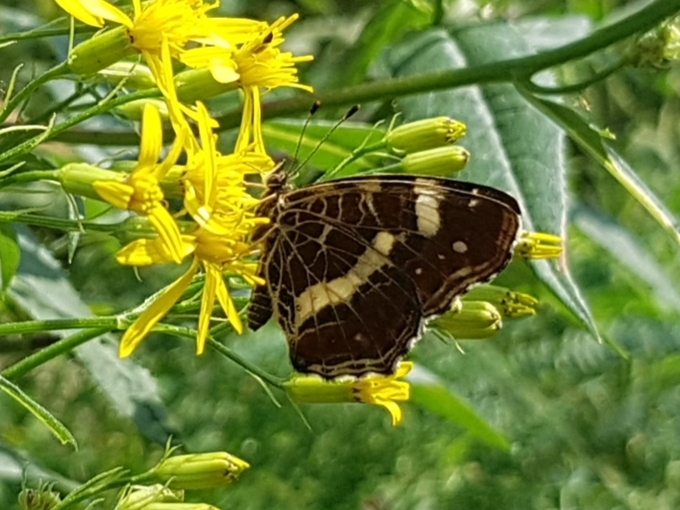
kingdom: Animalia
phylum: Arthropoda
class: Insecta
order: Lepidoptera
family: Nymphalidae
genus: Araschnia
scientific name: Araschnia levana
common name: Map butterfly
